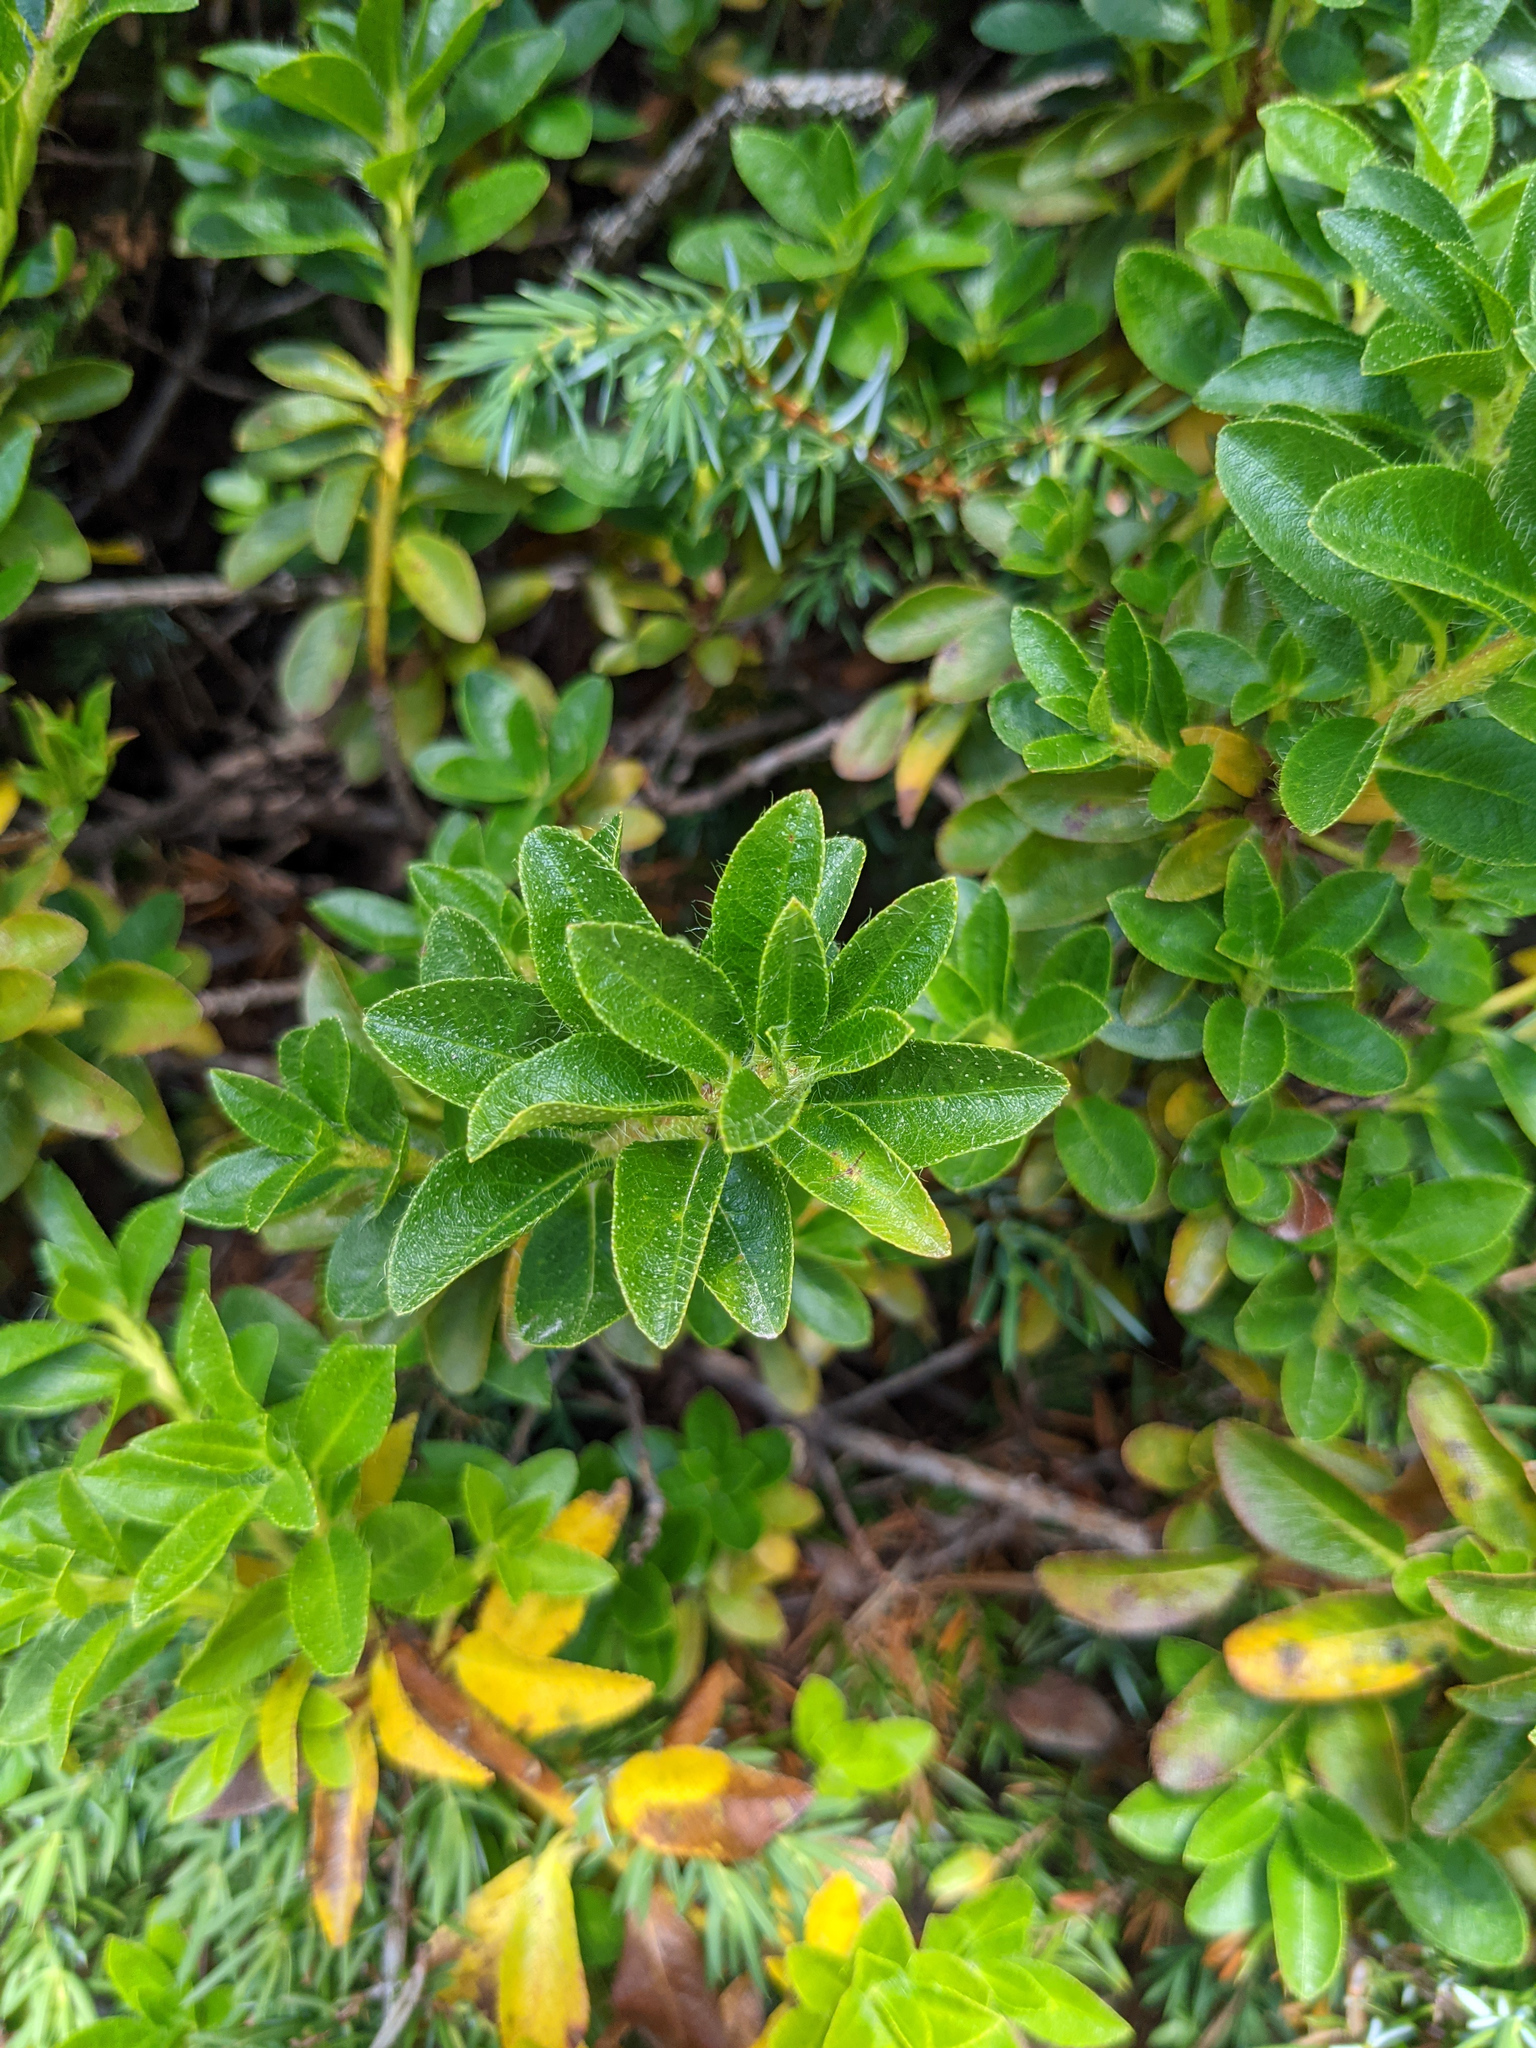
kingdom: Plantae
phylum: Tracheophyta
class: Magnoliopsida
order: Ericales
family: Ericaceae
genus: Rhododendron
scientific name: Rhododendron hirsutum
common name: Hairy alpenrose
